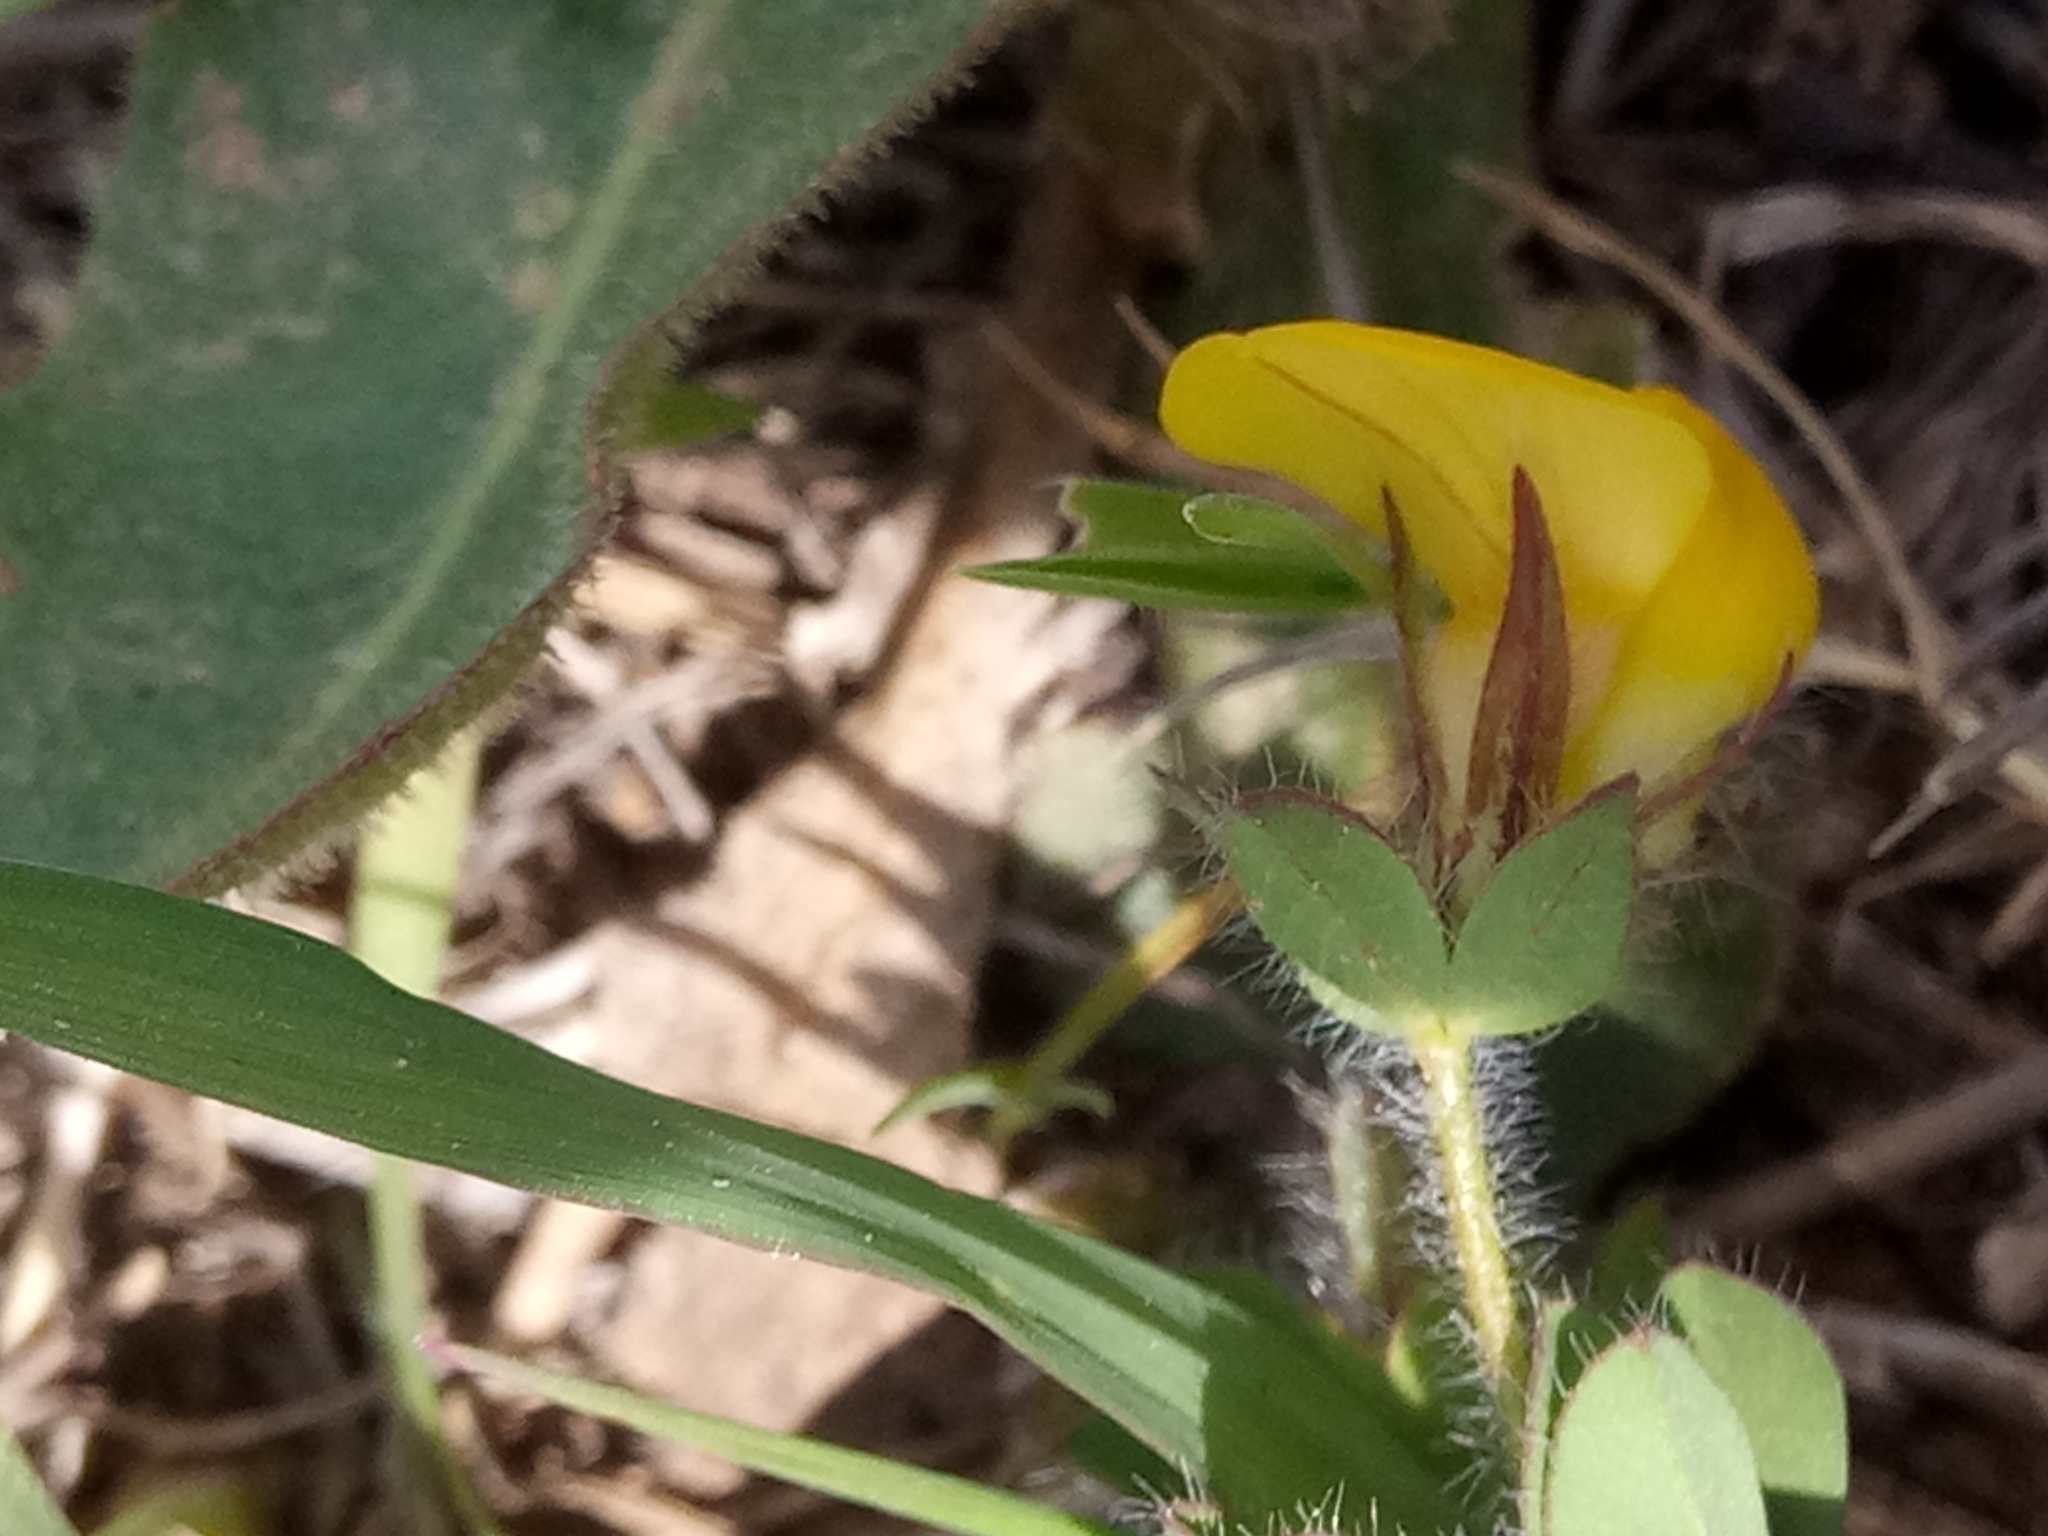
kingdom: Plantae
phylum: Tracheophyta
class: Magnoliopsida
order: Fabales
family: Fabaceae
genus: Lotus
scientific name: Lotus edulis
